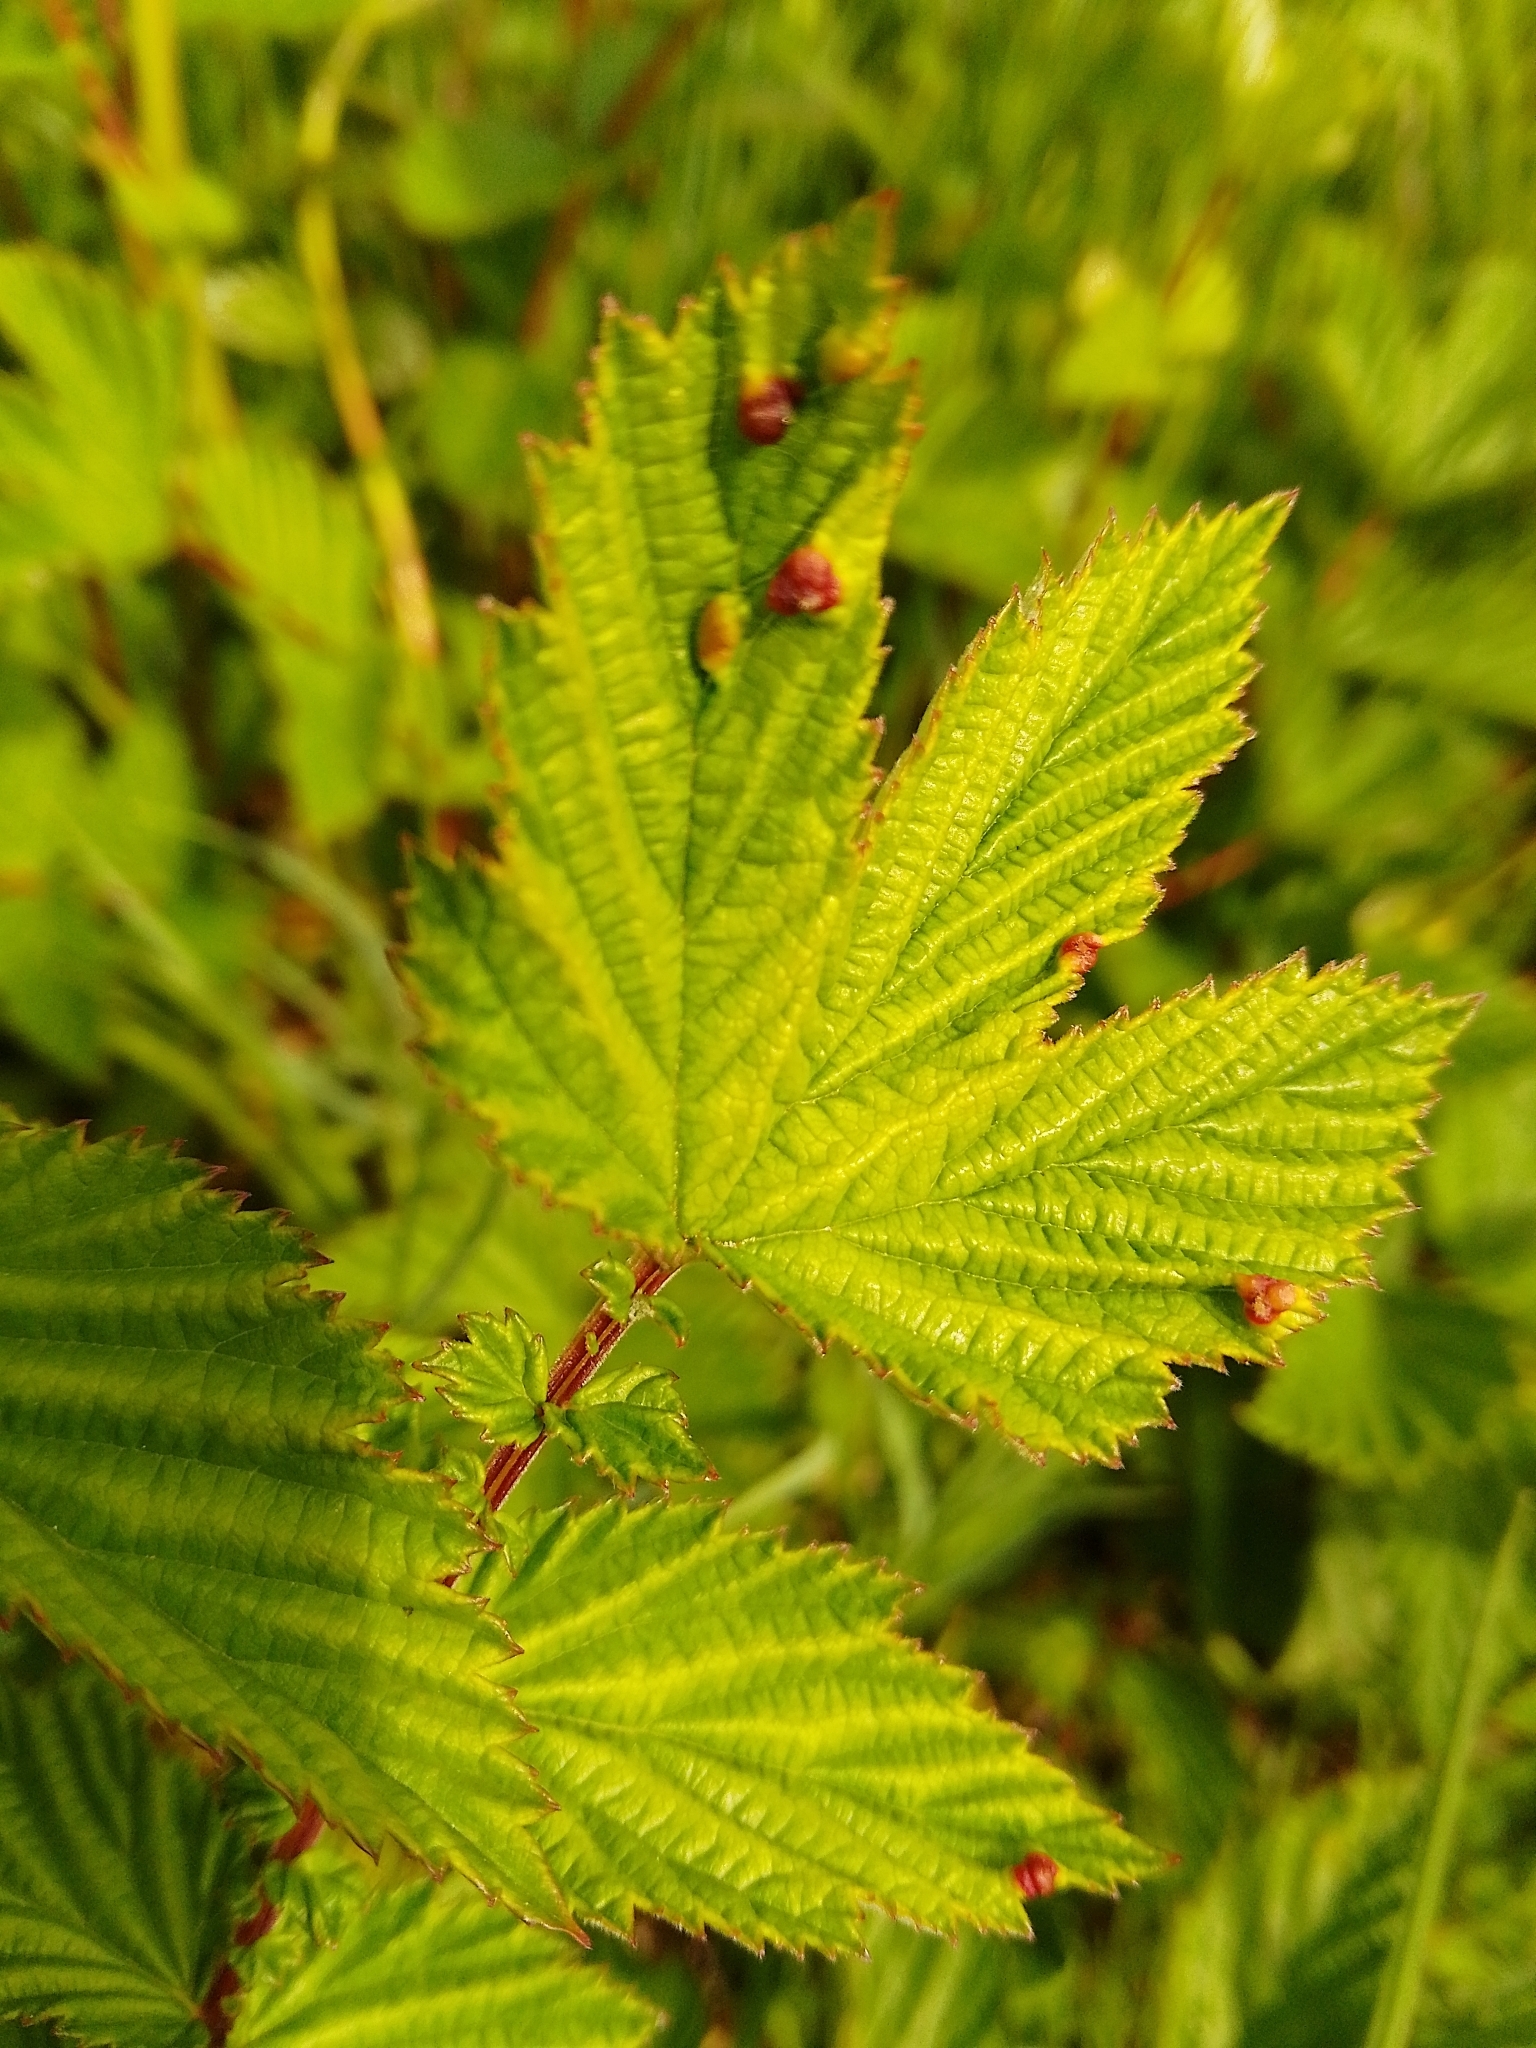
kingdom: Animalia
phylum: Arthropoda
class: Insecta
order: Diptera
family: Cecidomyiidae
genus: Dasineura
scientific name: Dasineura ulmaria
